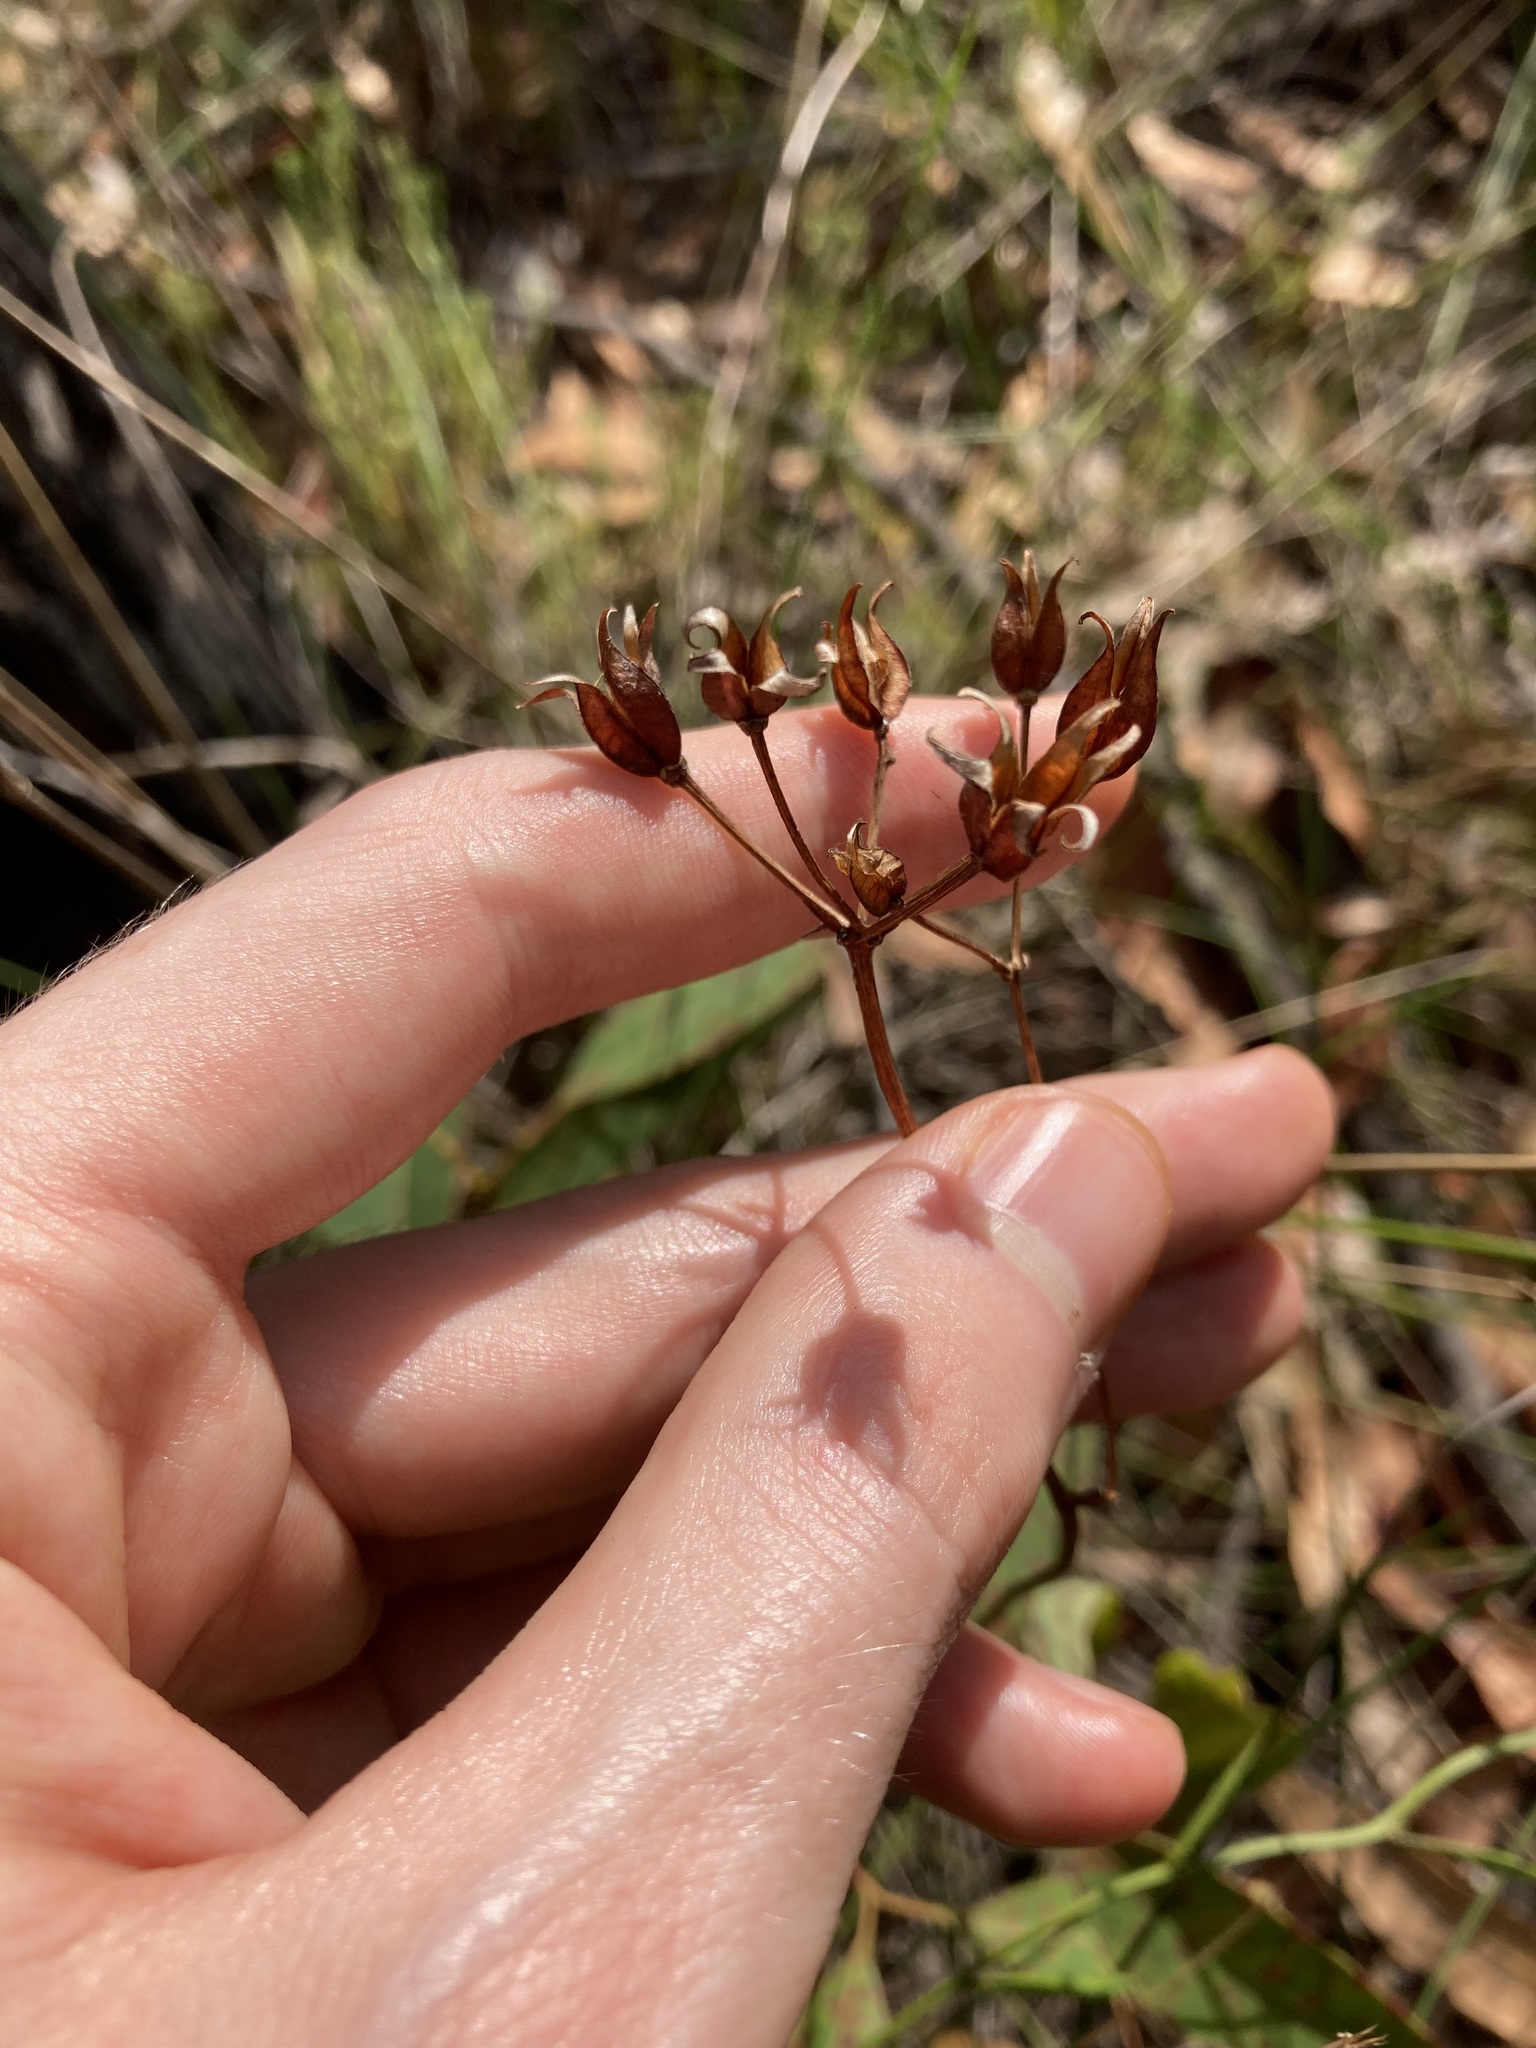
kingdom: Plantae
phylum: Tracheophyta
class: Liliopsida
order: Liliales
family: Colchicaceae
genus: Burchardia
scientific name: Burchardia umbellata
